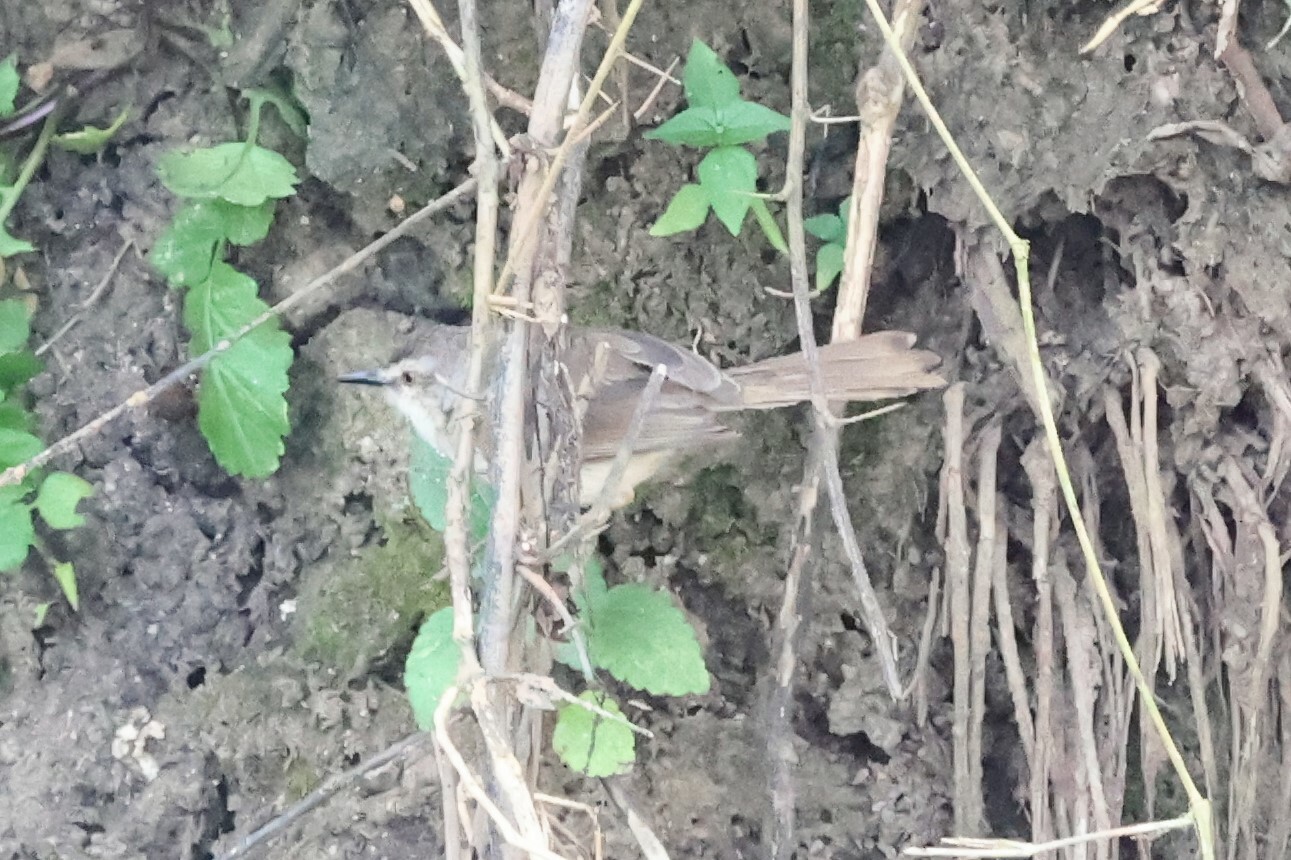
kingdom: Animalia
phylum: Chordata
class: Aves
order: Passeriformes
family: Cisticolidae
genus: Prinia
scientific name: Prinia subflava
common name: Tawny-flanked prinia
